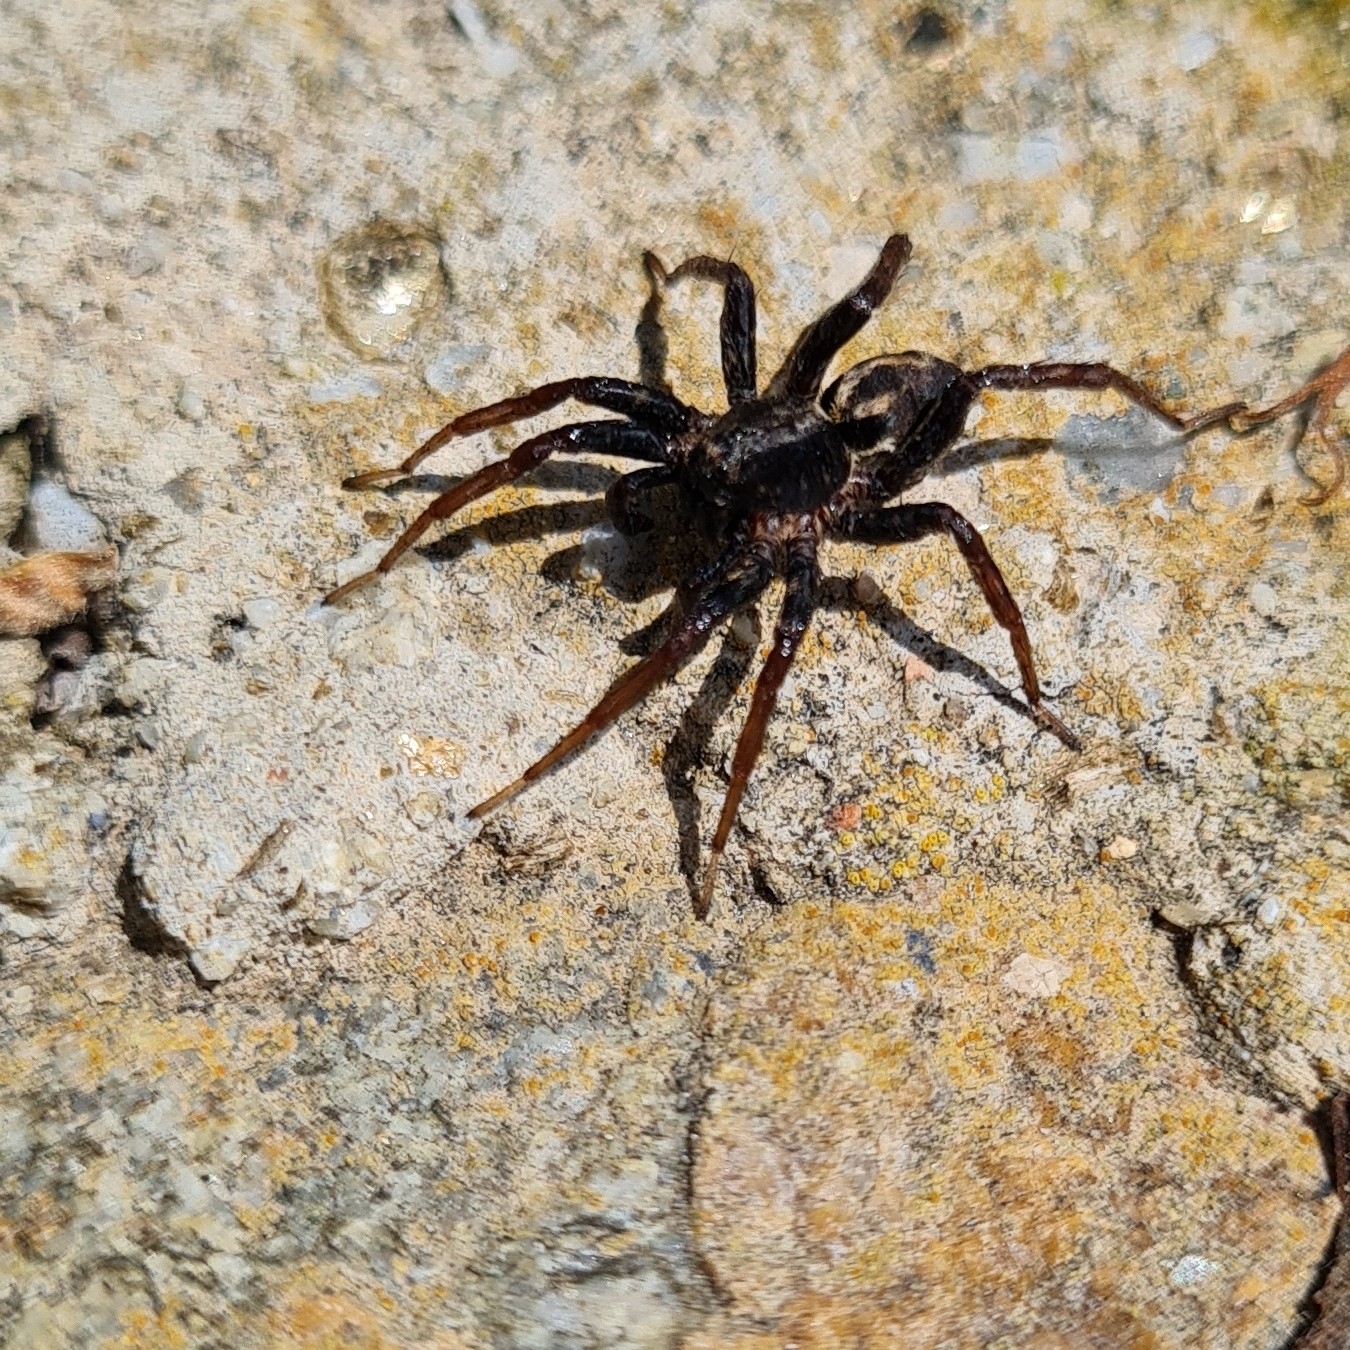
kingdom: Animalia
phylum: Arthropoda
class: Arachnida
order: Araneae
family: Lycosidae
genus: Alopecosa
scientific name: Alopecosa albofasciata
